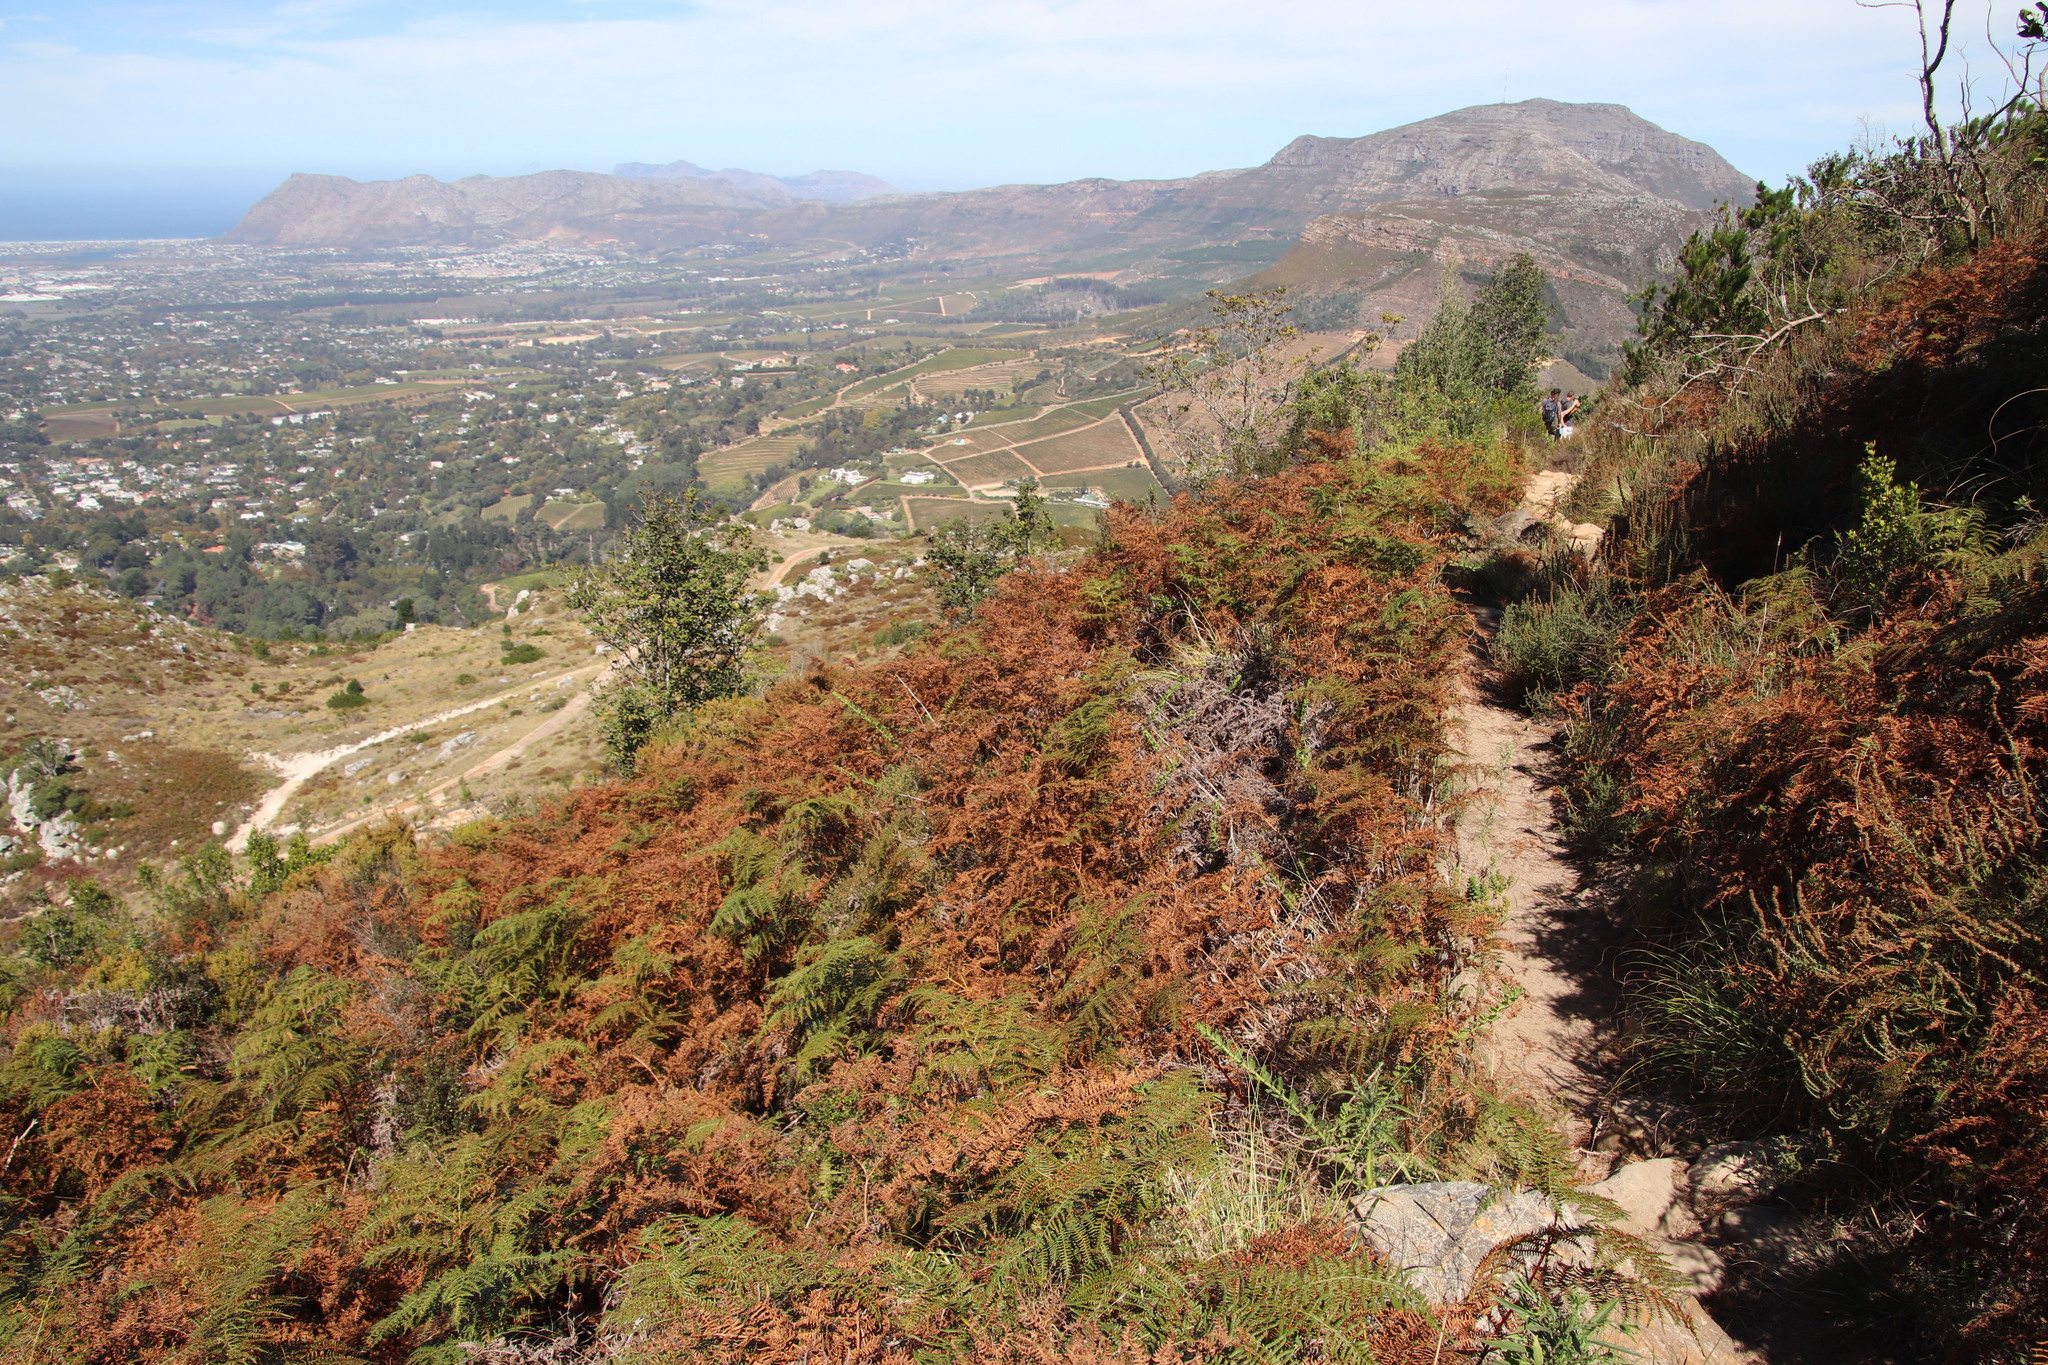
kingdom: Plantae
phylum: Tracheophyta
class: Polypodiopsida
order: Polypodiales
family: Dennstaedtiaceae
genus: Pteridium
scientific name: Pteridium aquilinum
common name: Bracken
